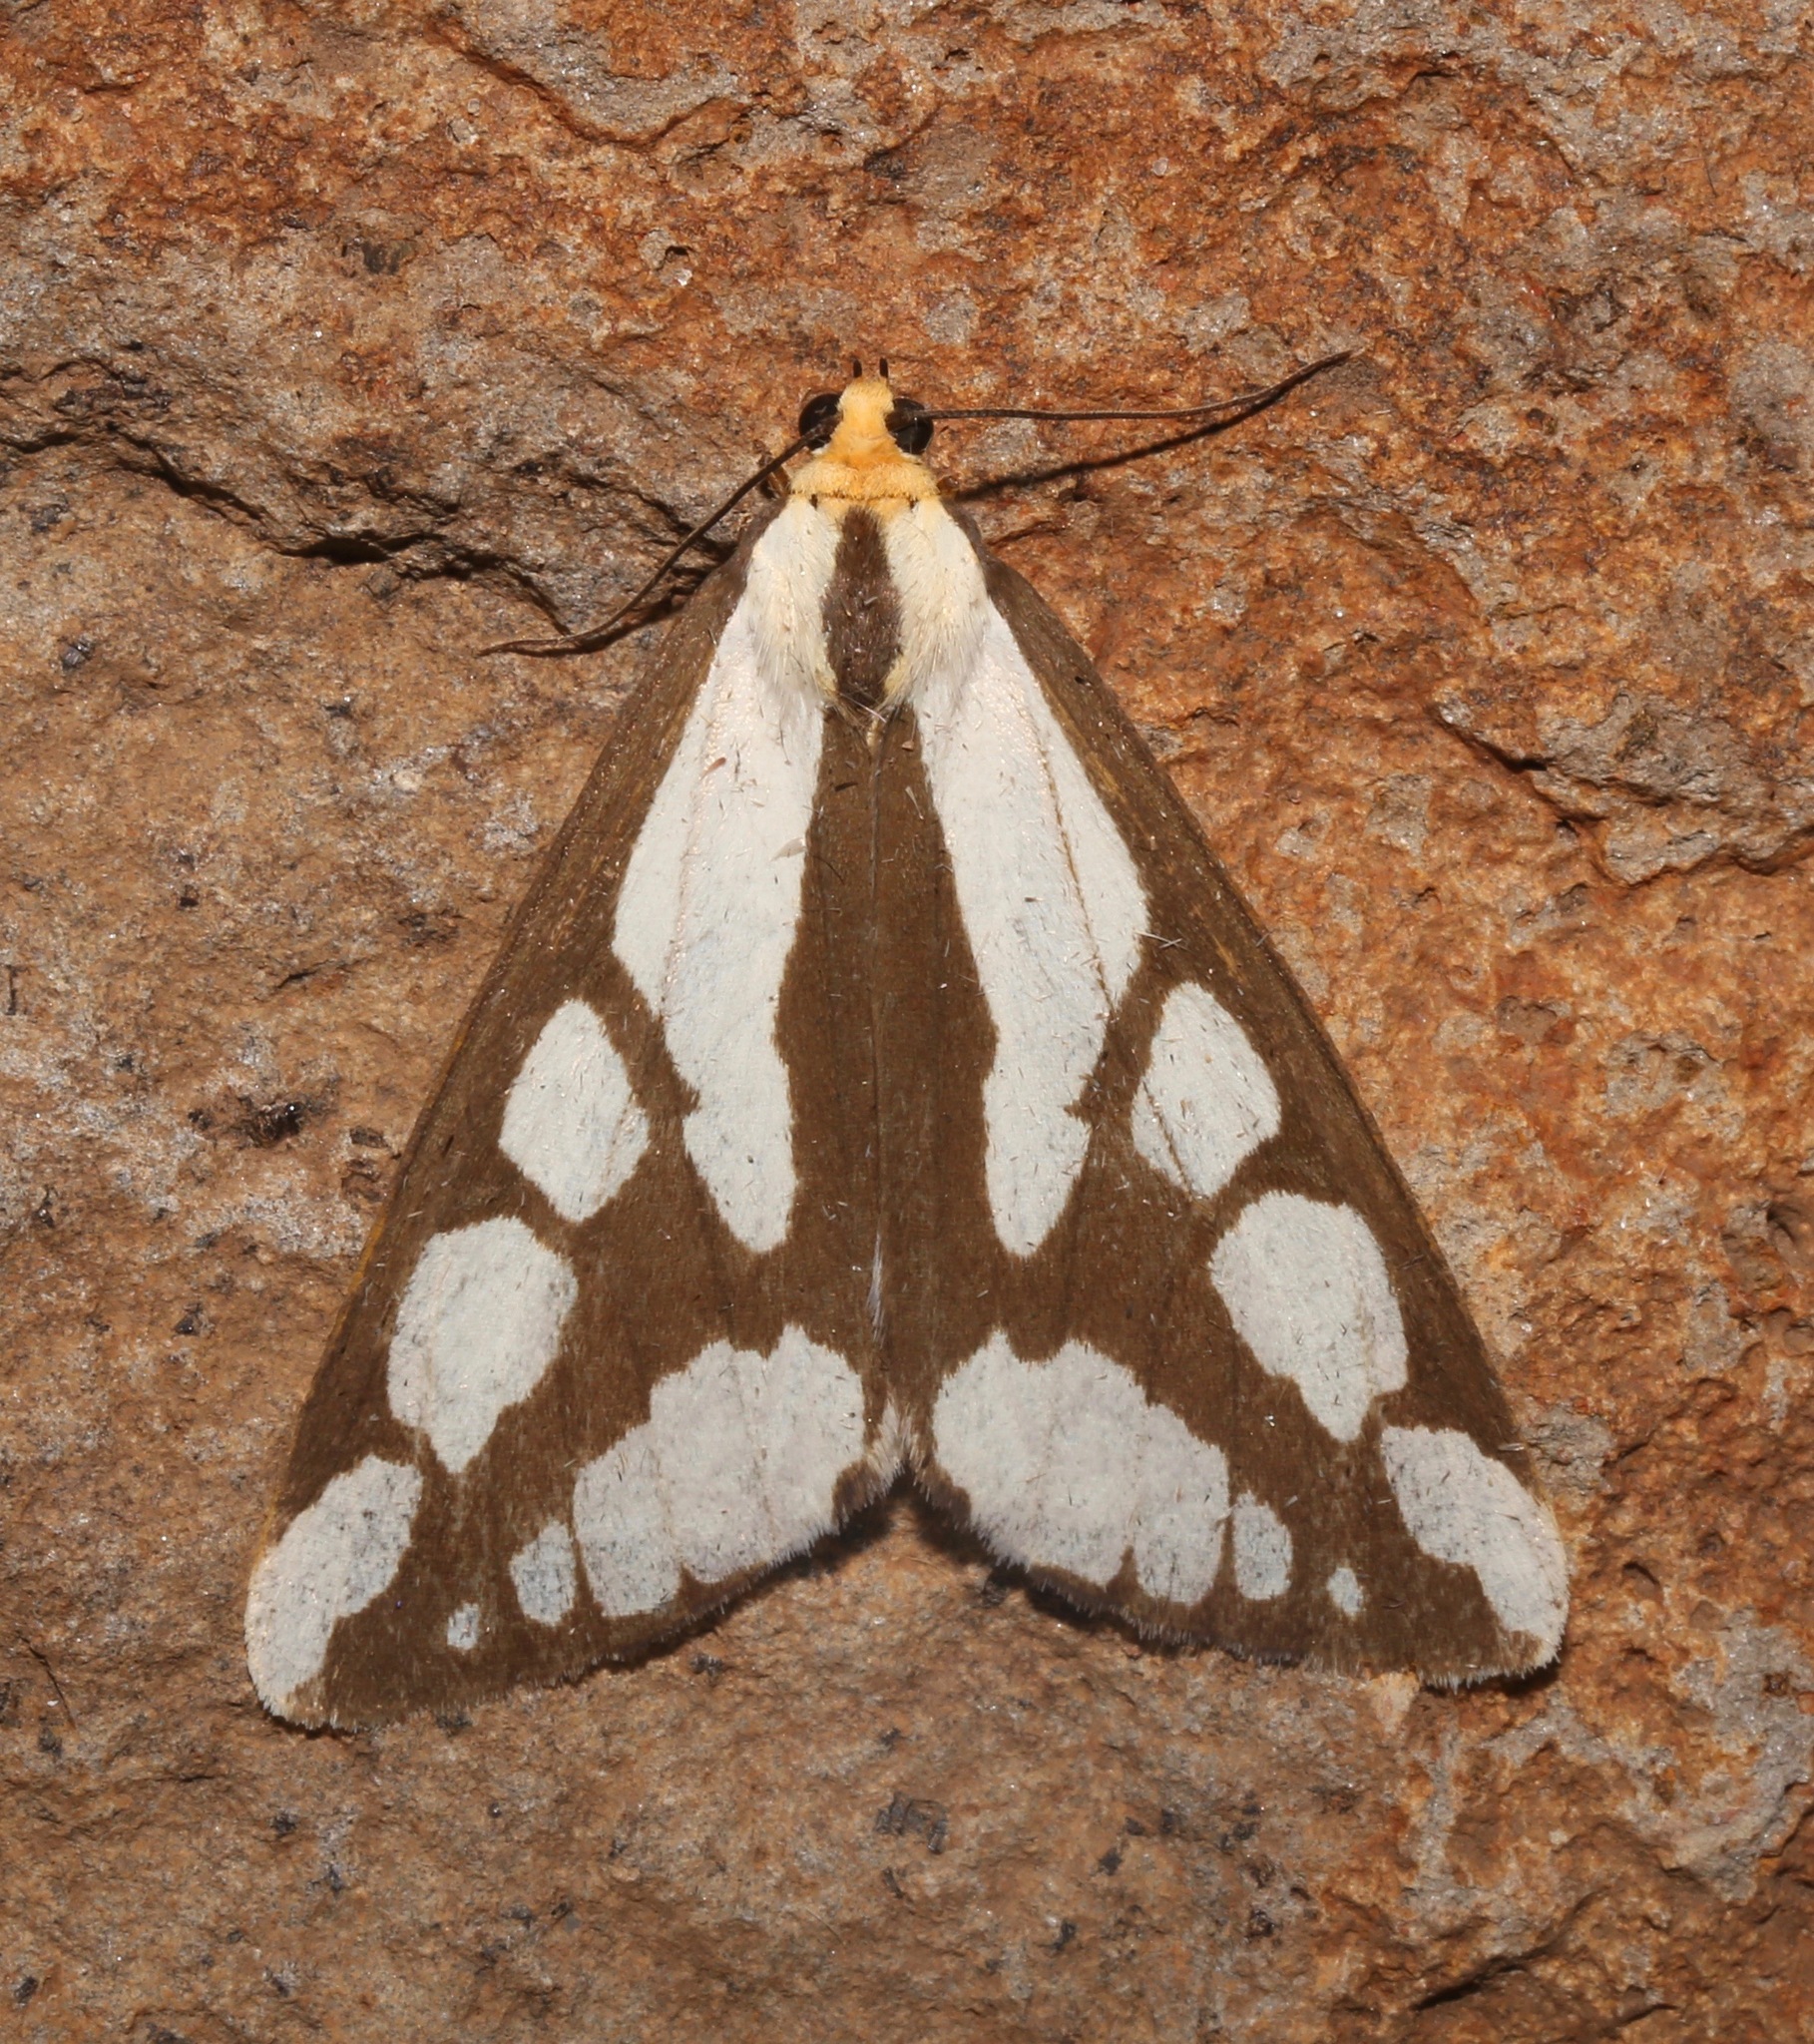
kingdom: Animalia
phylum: Arthropoda
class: Insecta
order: Lepidoptera
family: Erebidae
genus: Haploa
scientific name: Haploa reversa
